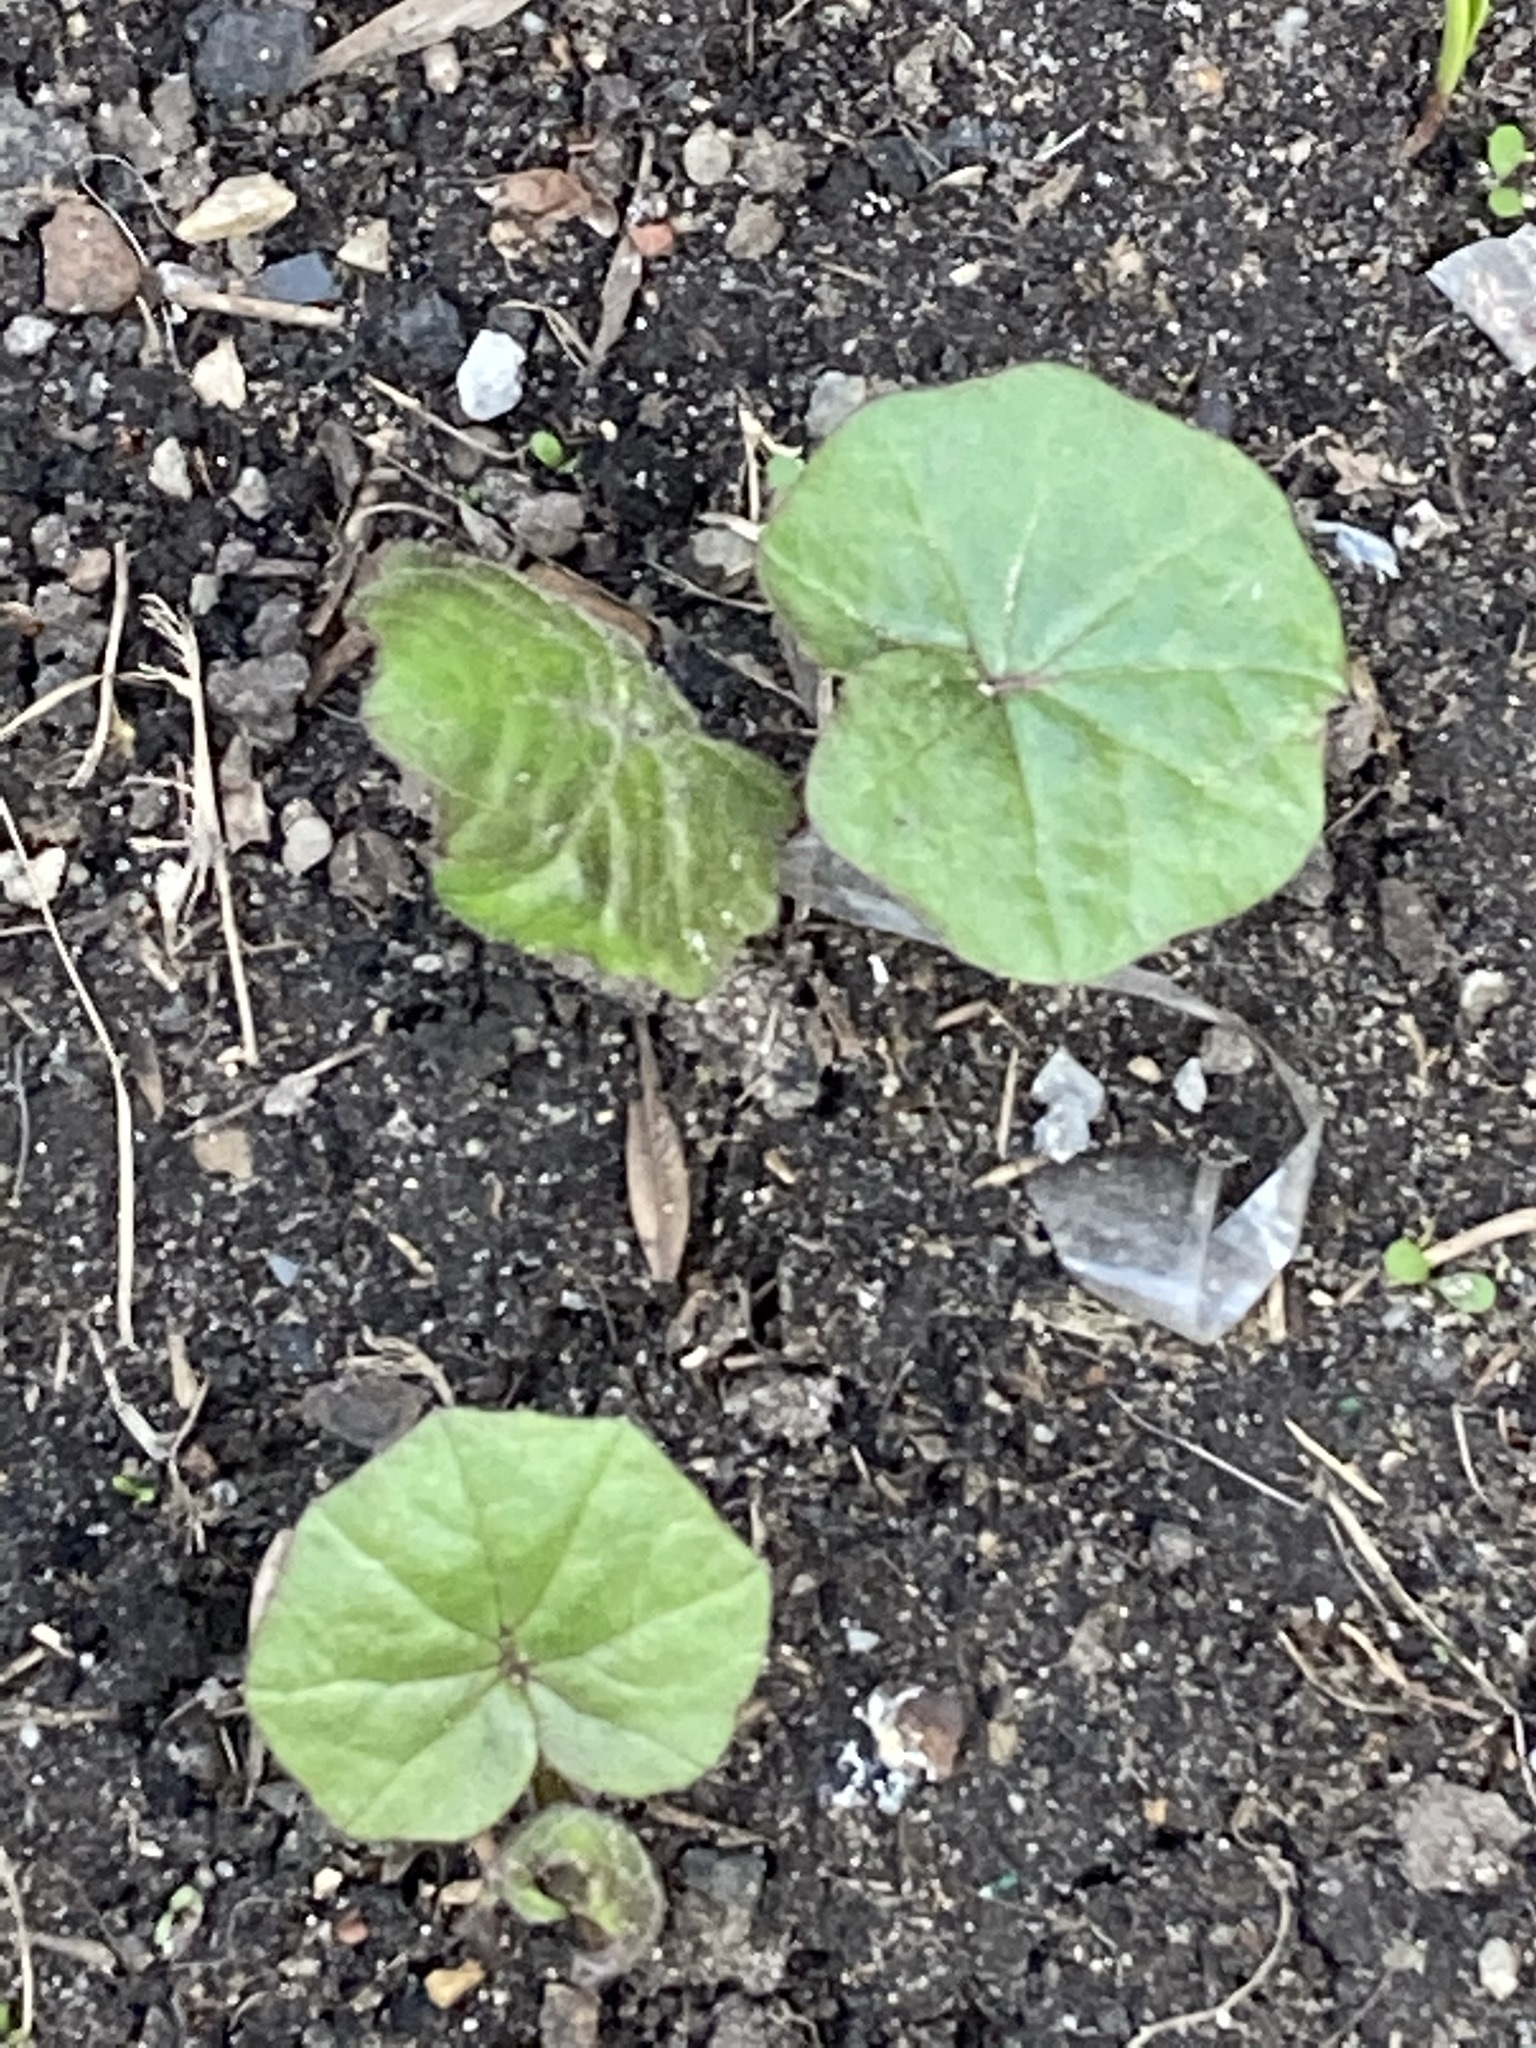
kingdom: Plantae
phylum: Tracheophyta
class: Magnoliopsida
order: Asterales
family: Asteraceae
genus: Tussilago
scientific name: Tussilago farfara
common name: Coltsfoot
